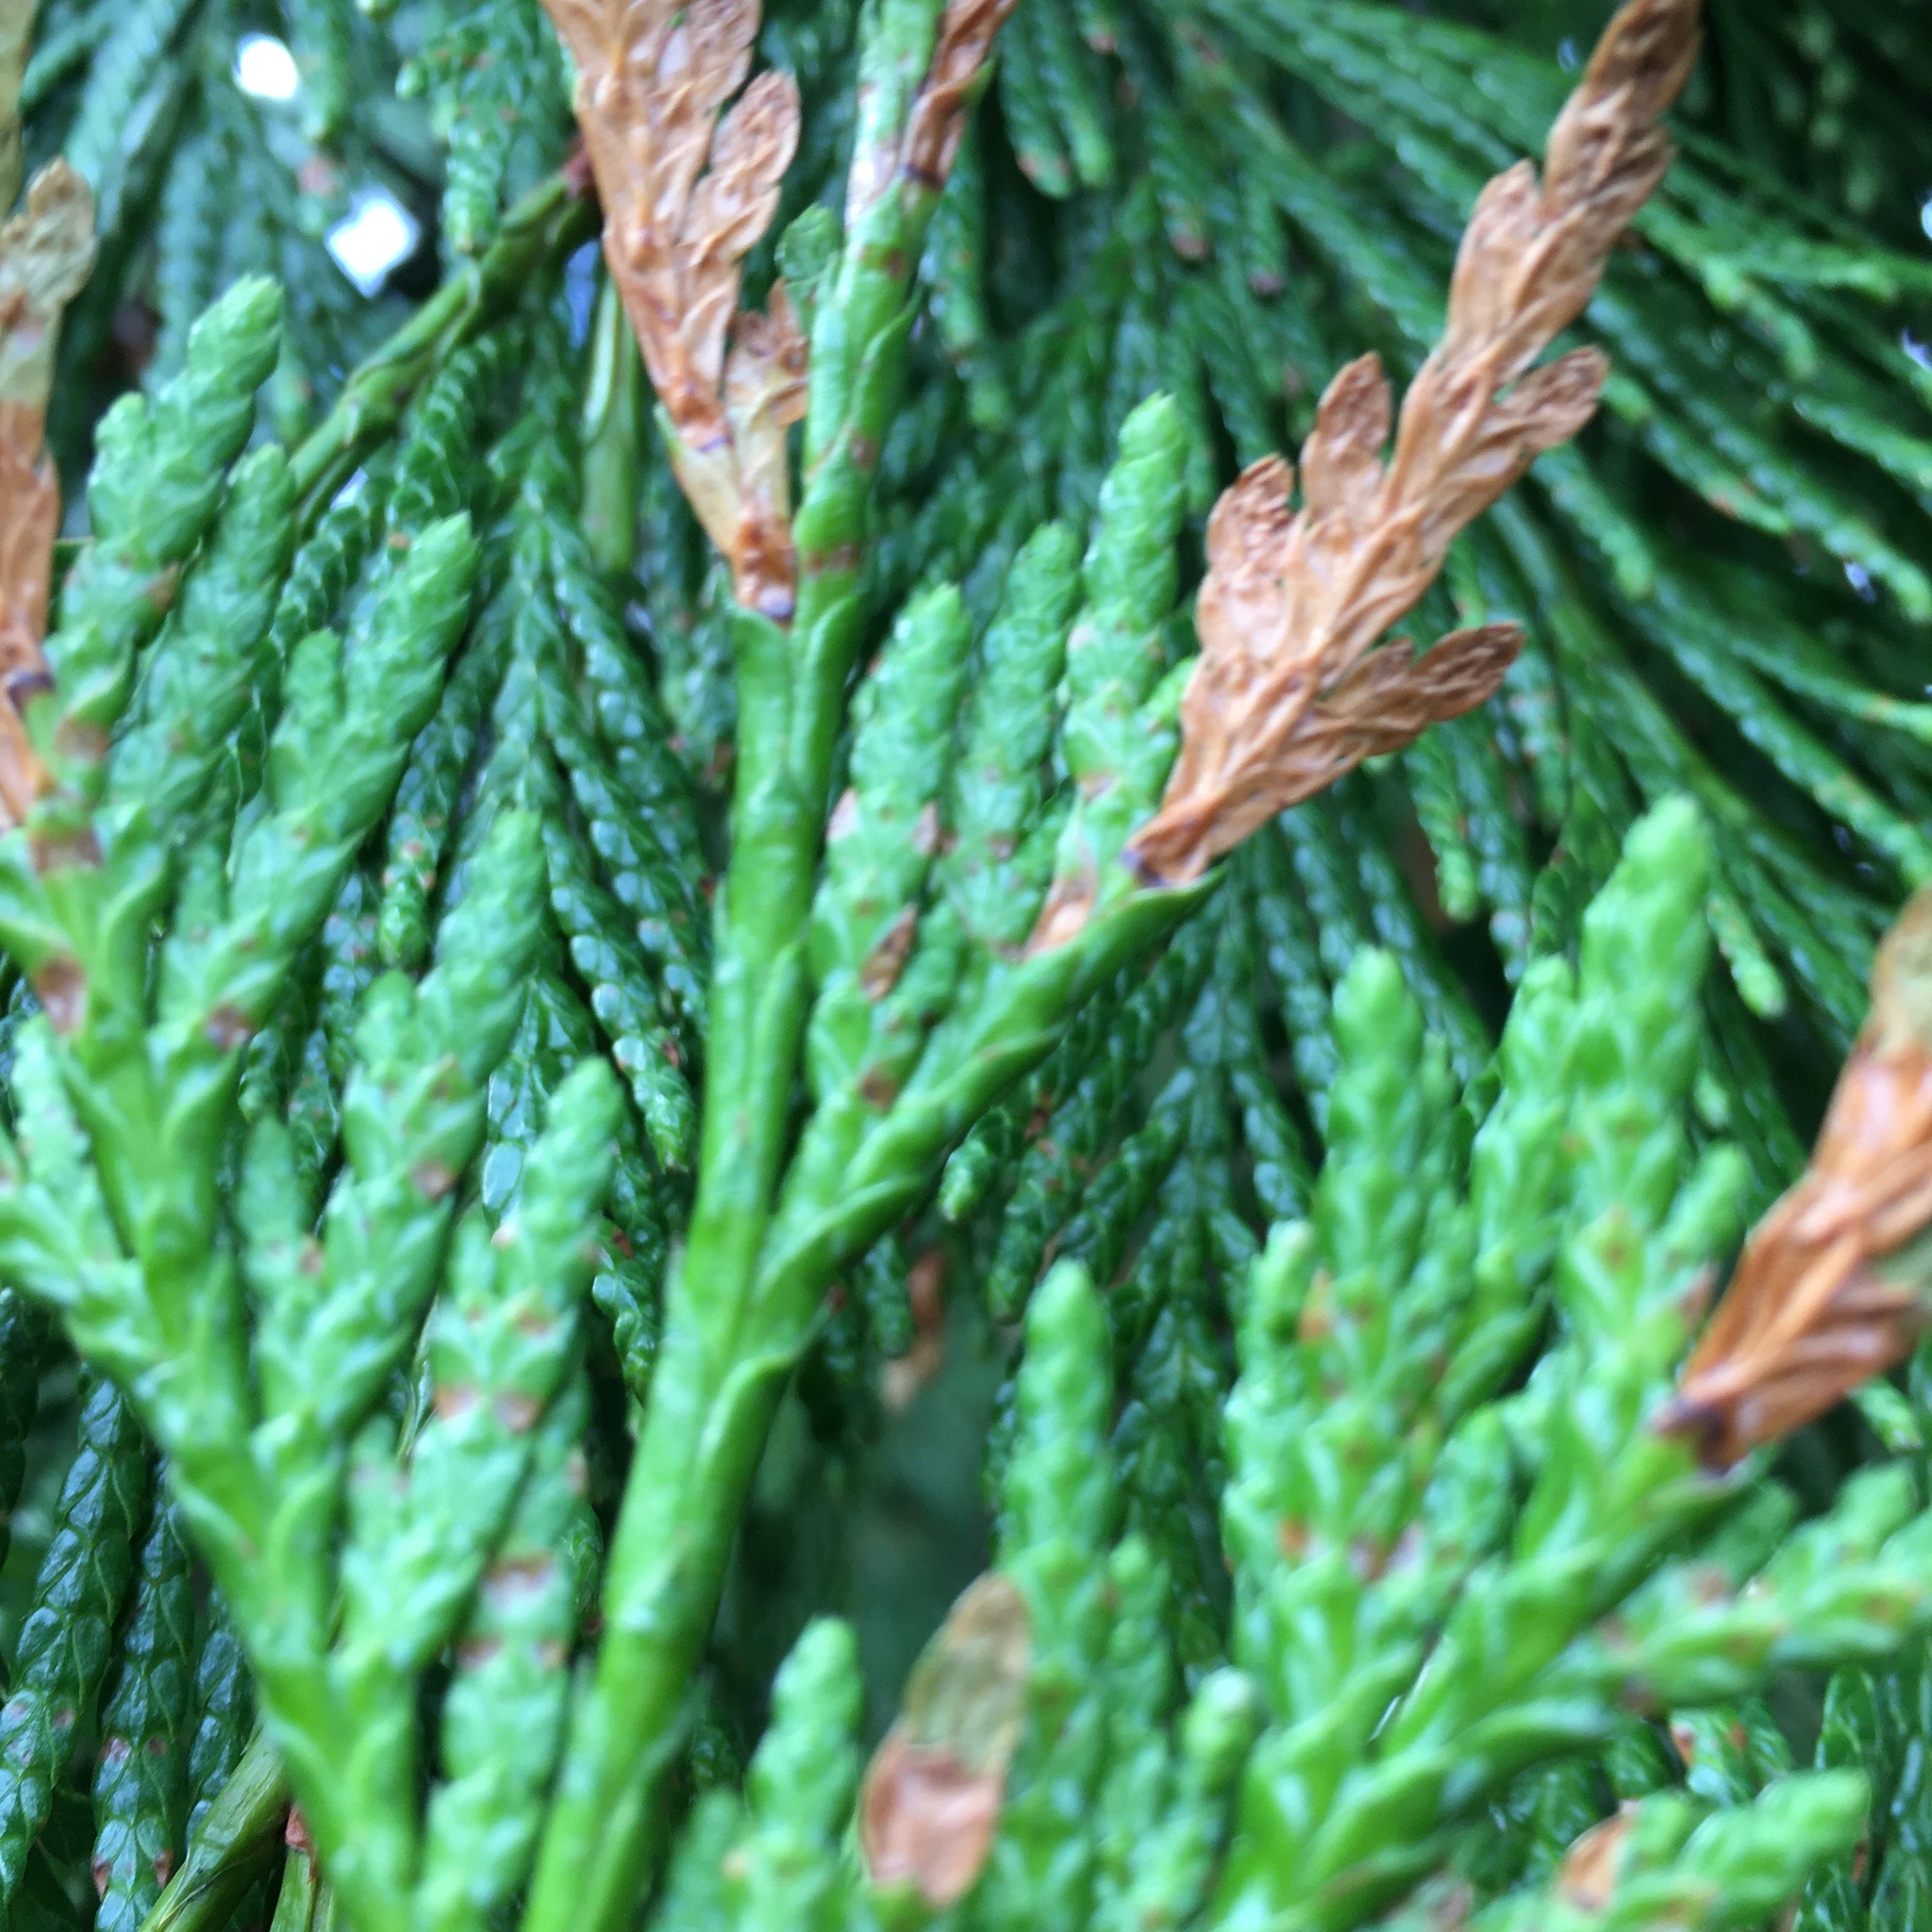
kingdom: Plantae
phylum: Tracheophyta
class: Pinopsida
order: Pinales
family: Cupressaceae
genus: Thuja
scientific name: Thuja plicata
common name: Western red-cedar
